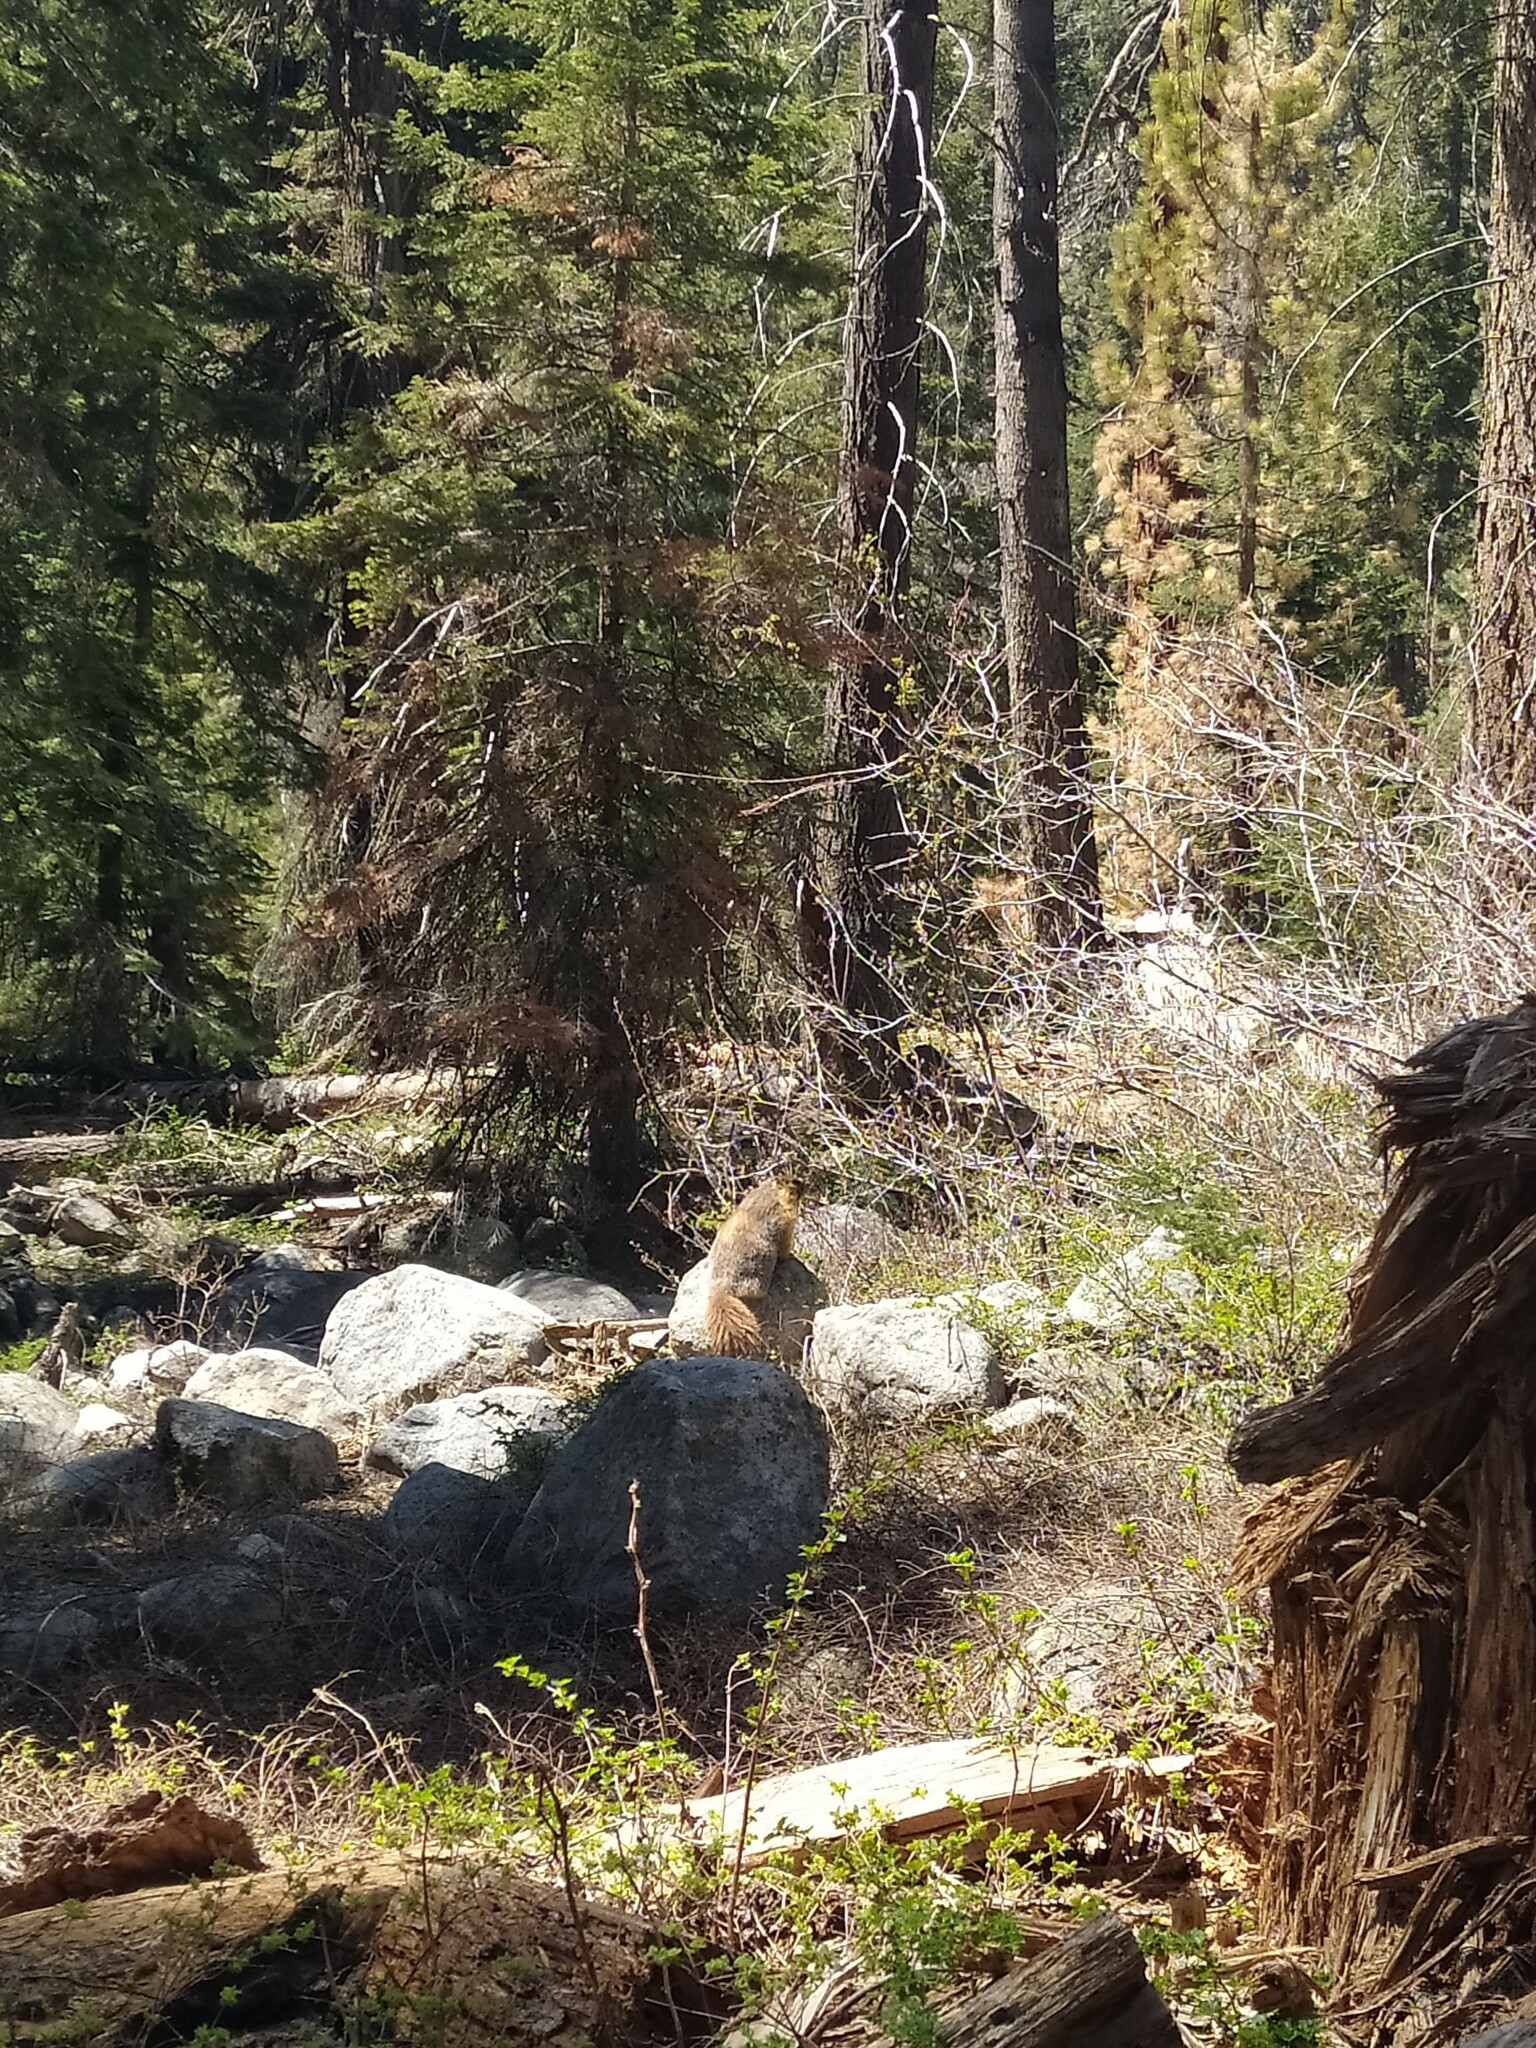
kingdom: Animalia
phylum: Chordata
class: Mammalia
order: Rodentia
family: Sciuridae
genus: Marmota
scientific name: Marmota flaviventris
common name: Yellow-bellied marmot
